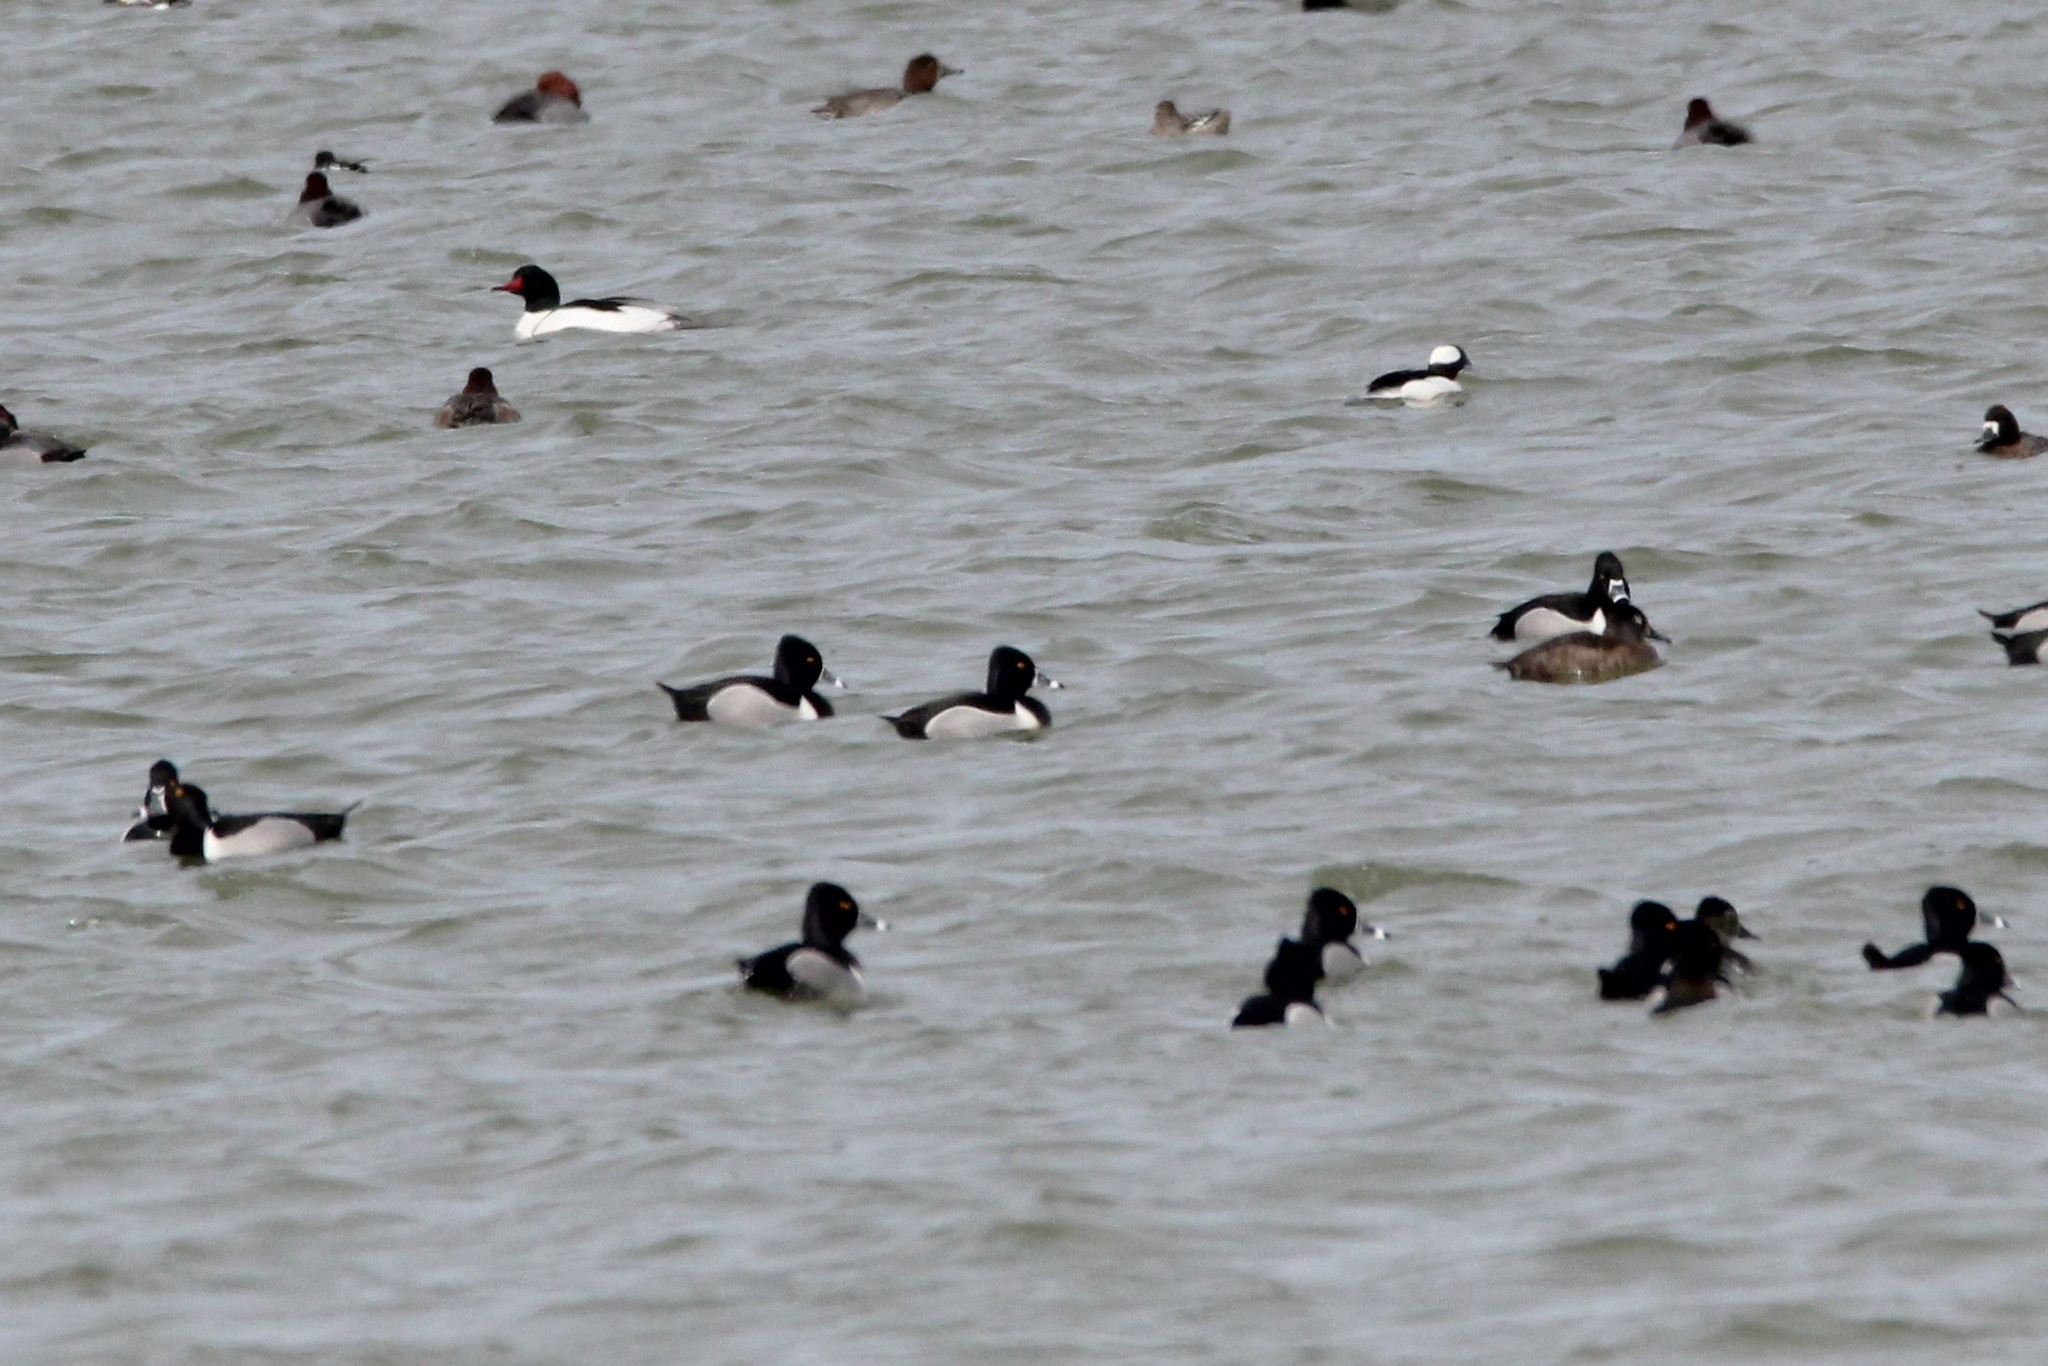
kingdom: Animalia
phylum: Chordata
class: Aves
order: Anseriformes
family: Anatidae
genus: Aythya
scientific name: Aythya collaris
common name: Ring-necked duck
